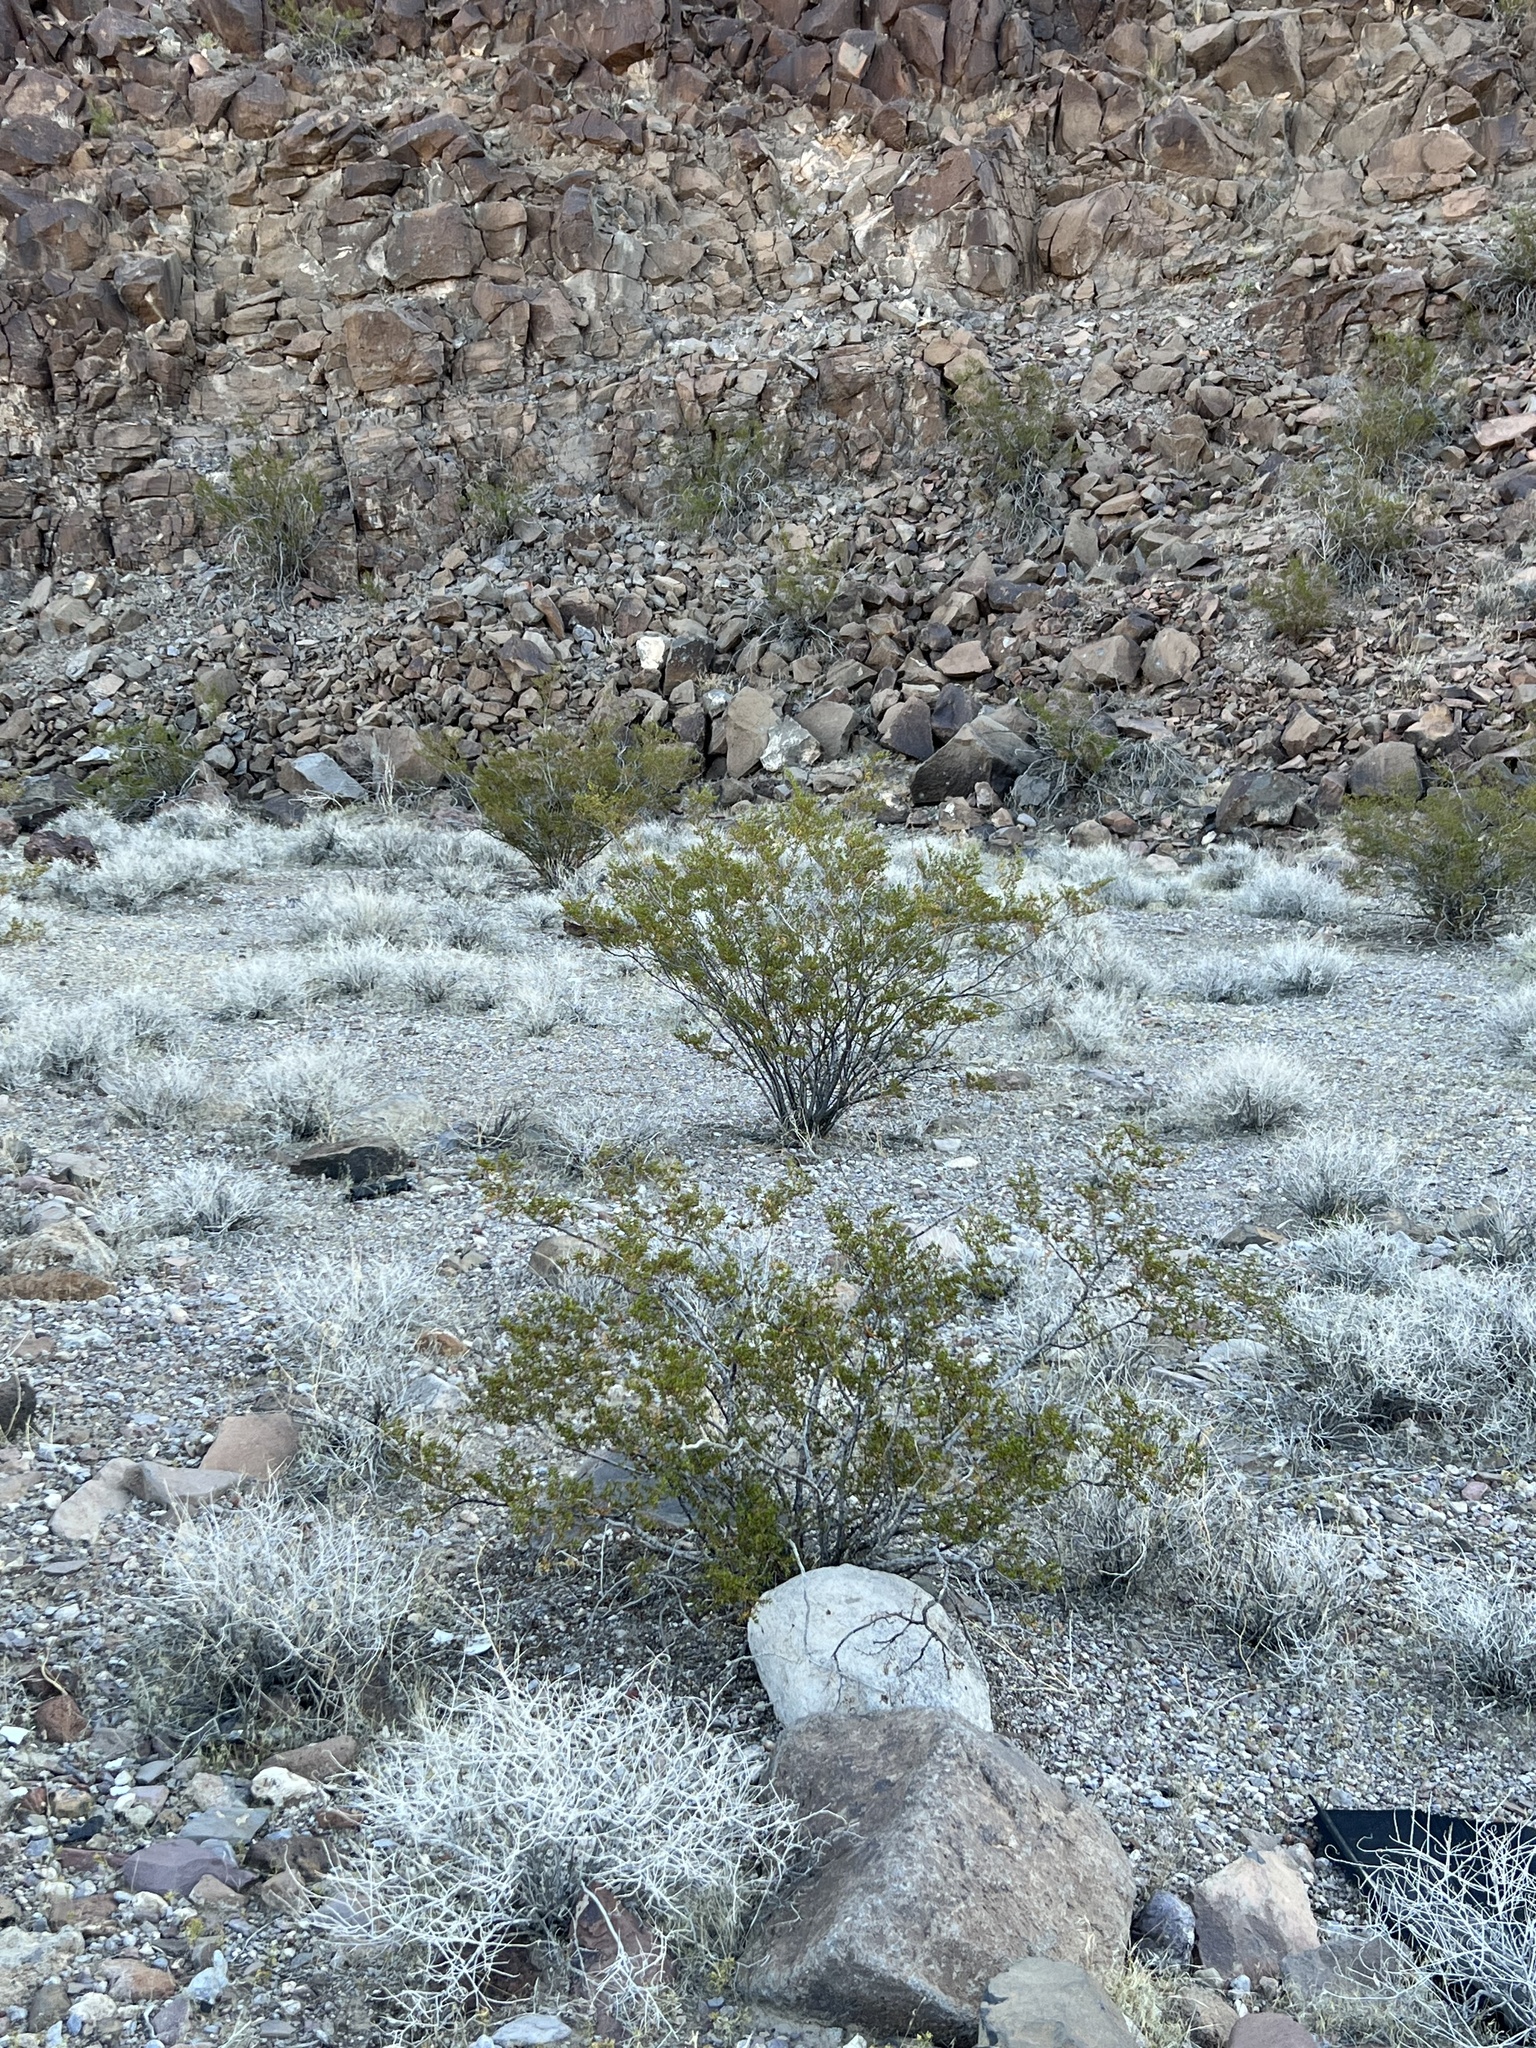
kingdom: Plantae
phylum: Tracheophyta
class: Magnoliopsida
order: Zygophyllales
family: Zygophyllaceae
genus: Larrea
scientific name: Larrea tridentata
